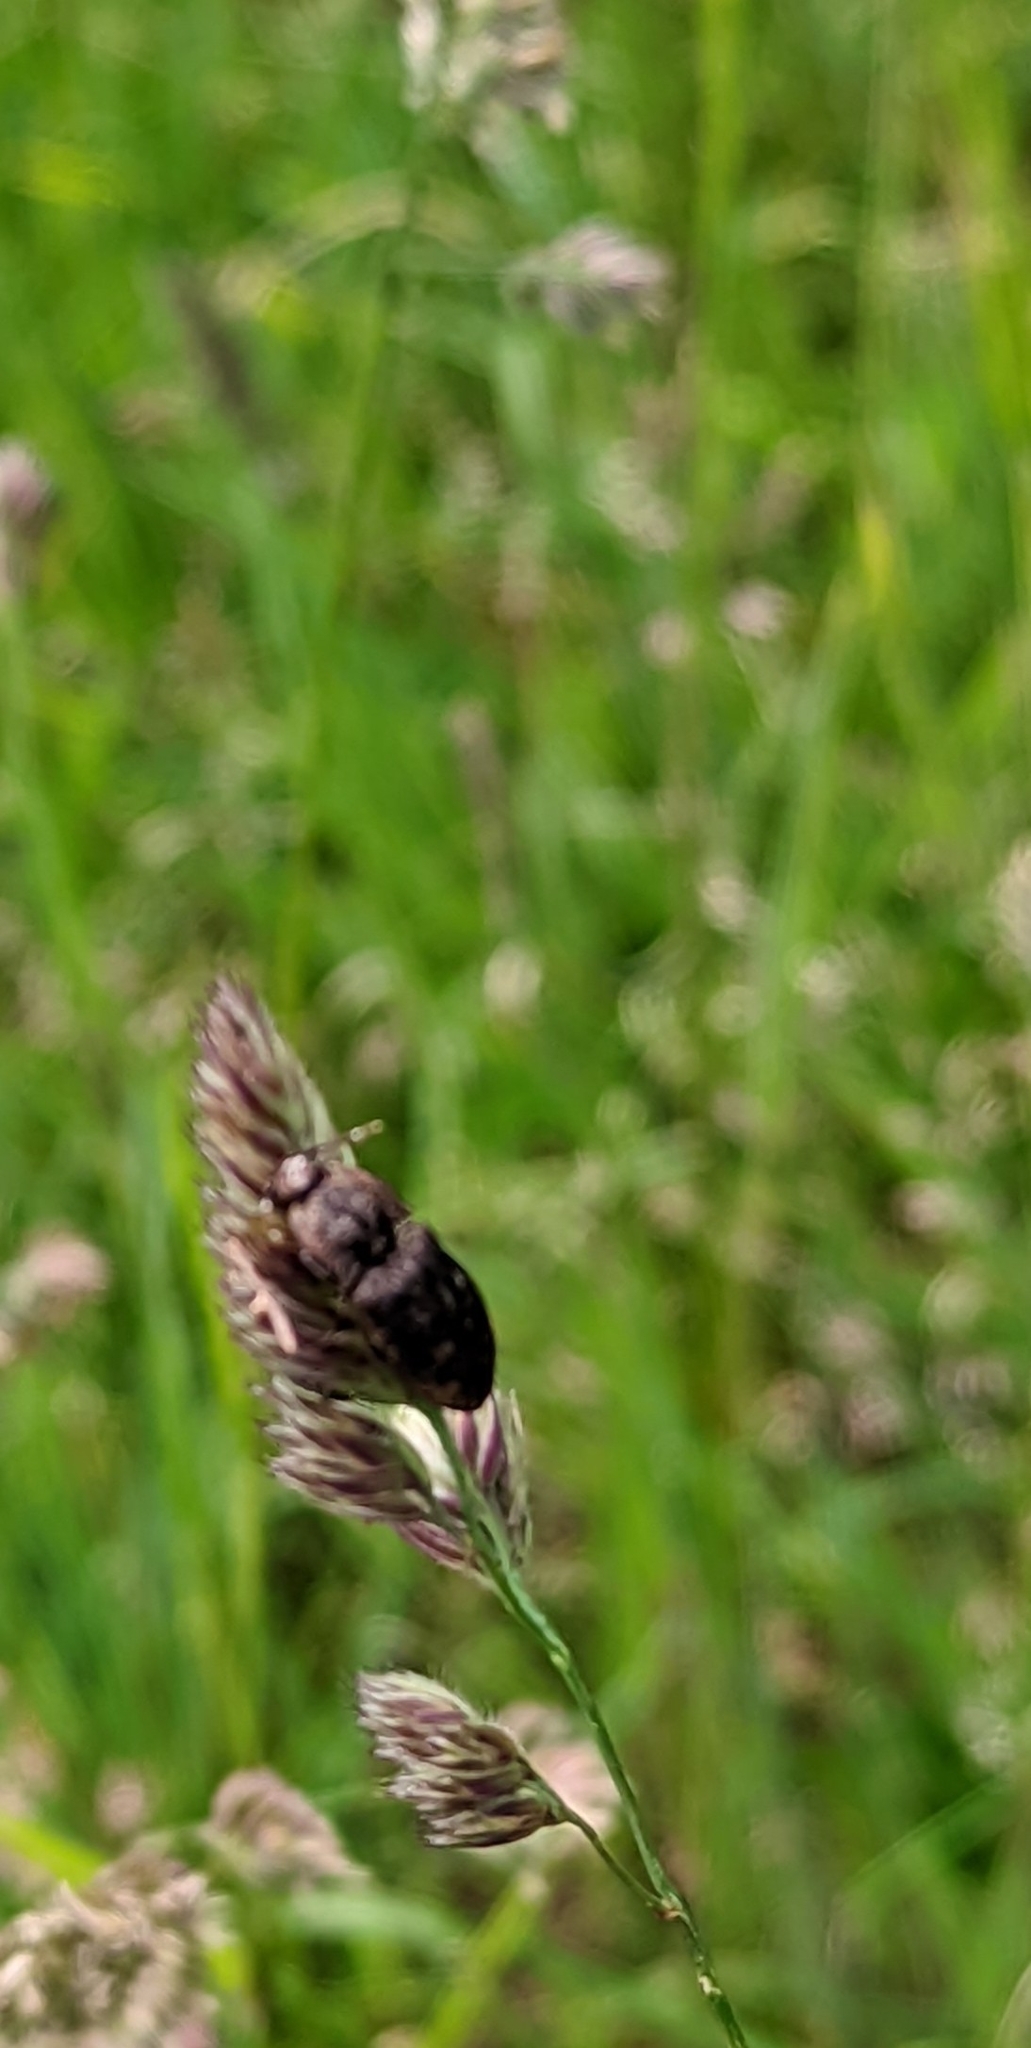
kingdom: Animalia
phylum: Arthropoda
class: Insecta
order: Coleoptera
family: Elateridae
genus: Agrypnus
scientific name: Agrypnus murinus
